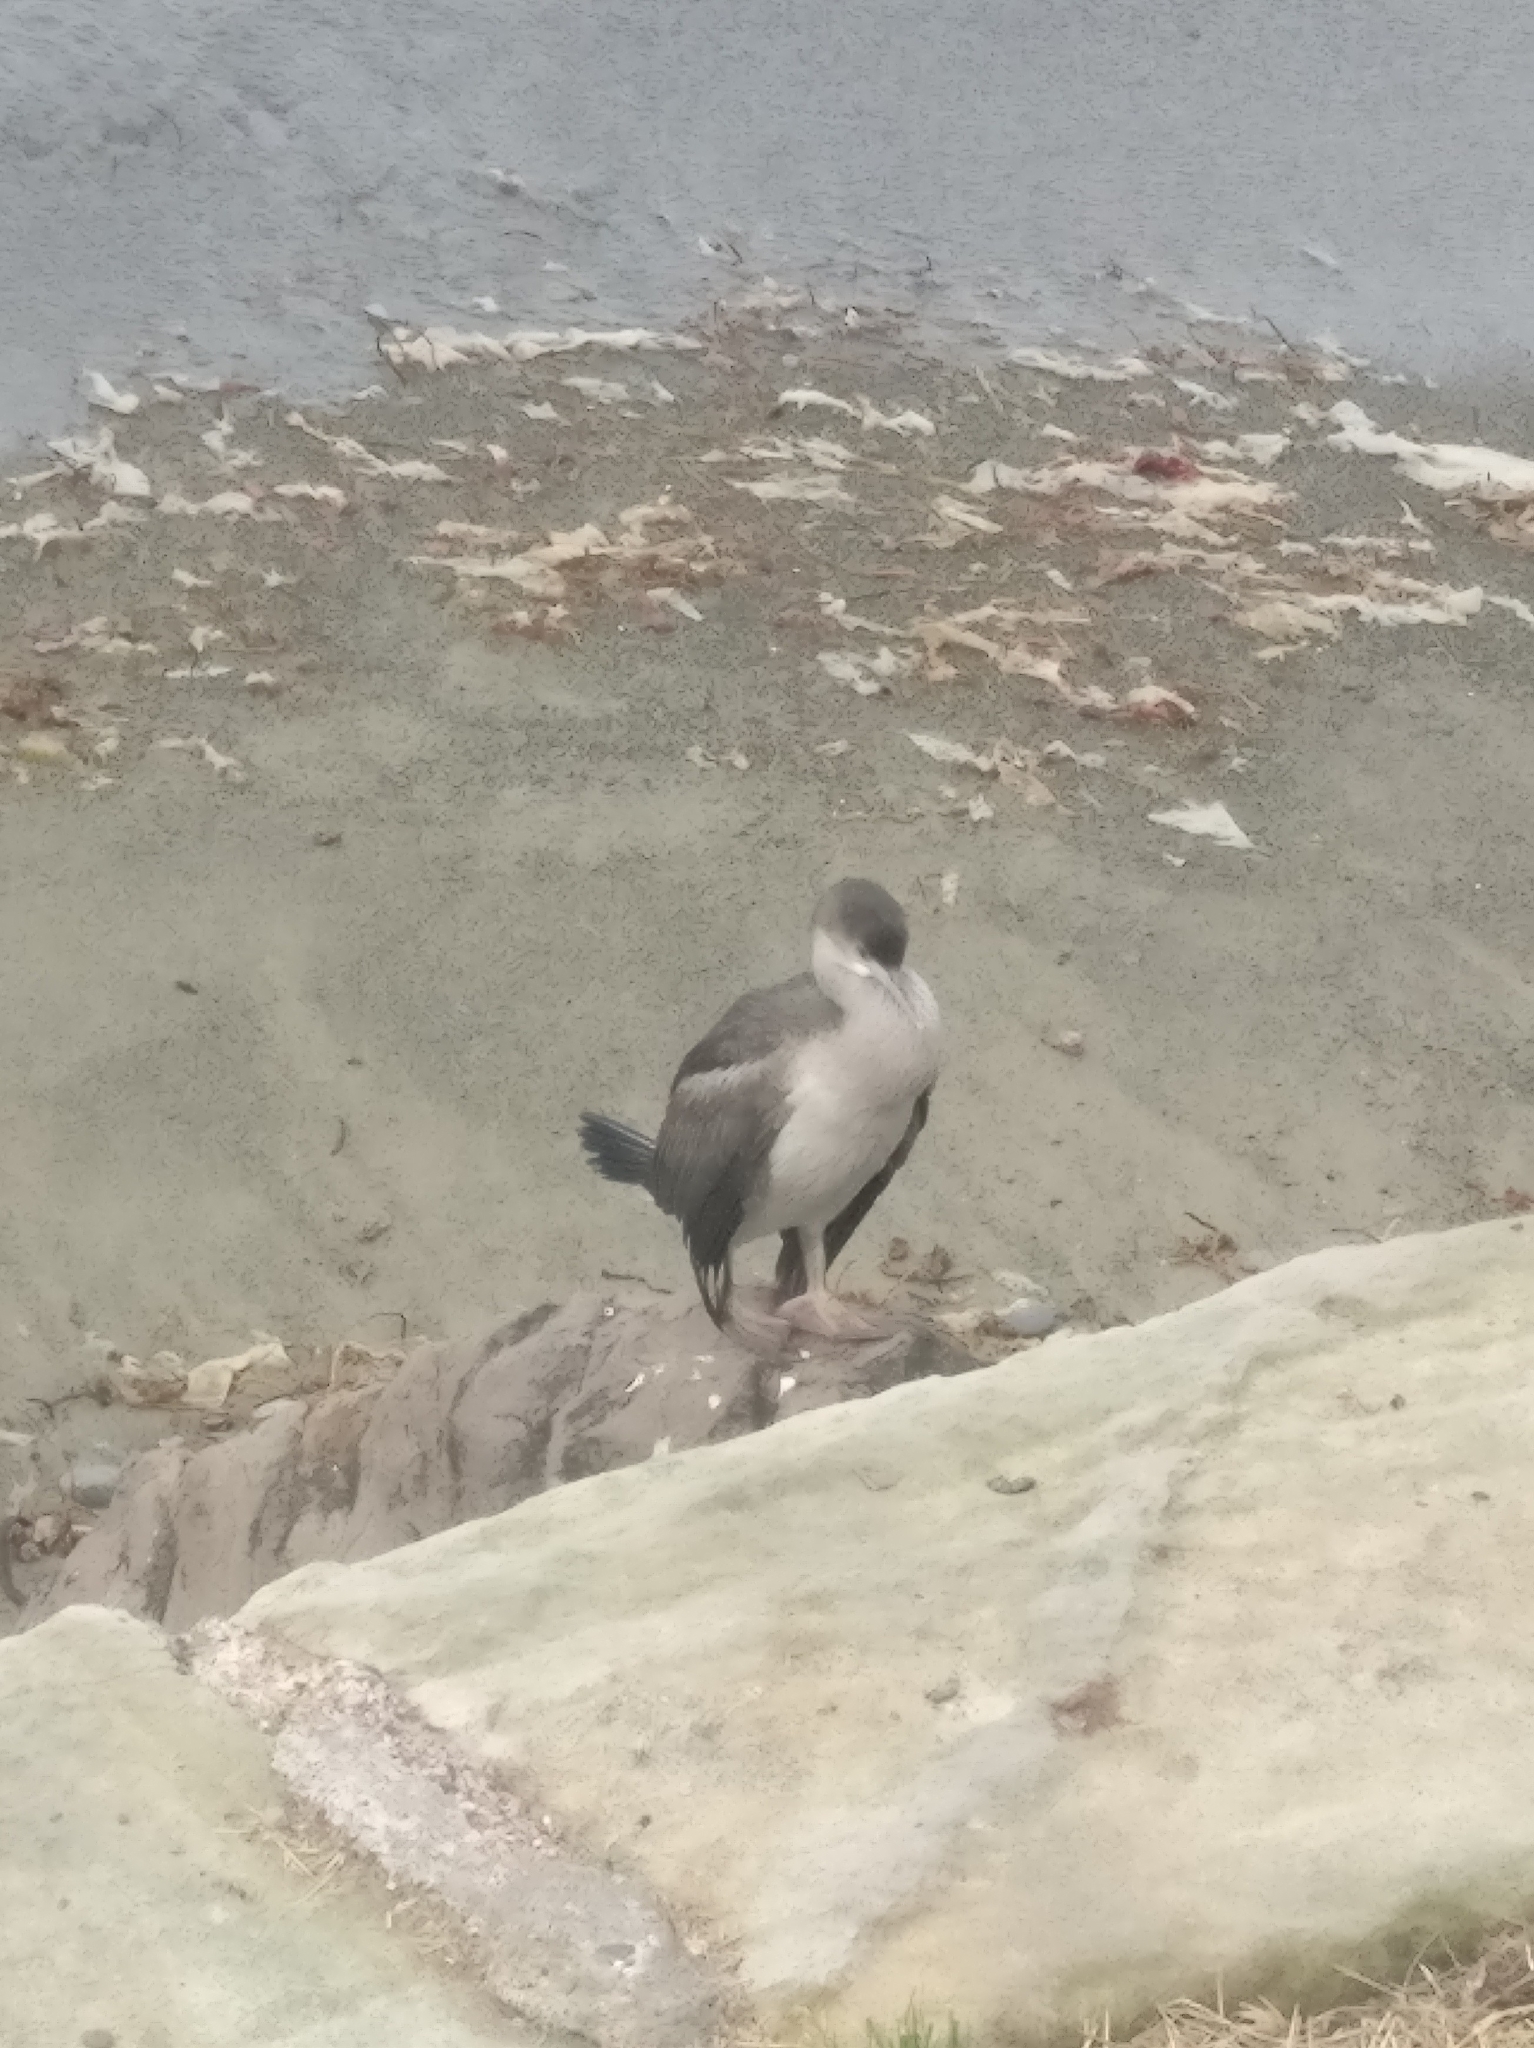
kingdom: Animalia
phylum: Chordata
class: Aves
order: Suliformes
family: Phalacrocoracidae
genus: Phalacrocorax
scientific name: Phalacrocorax punctatus
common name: Spotted shag
